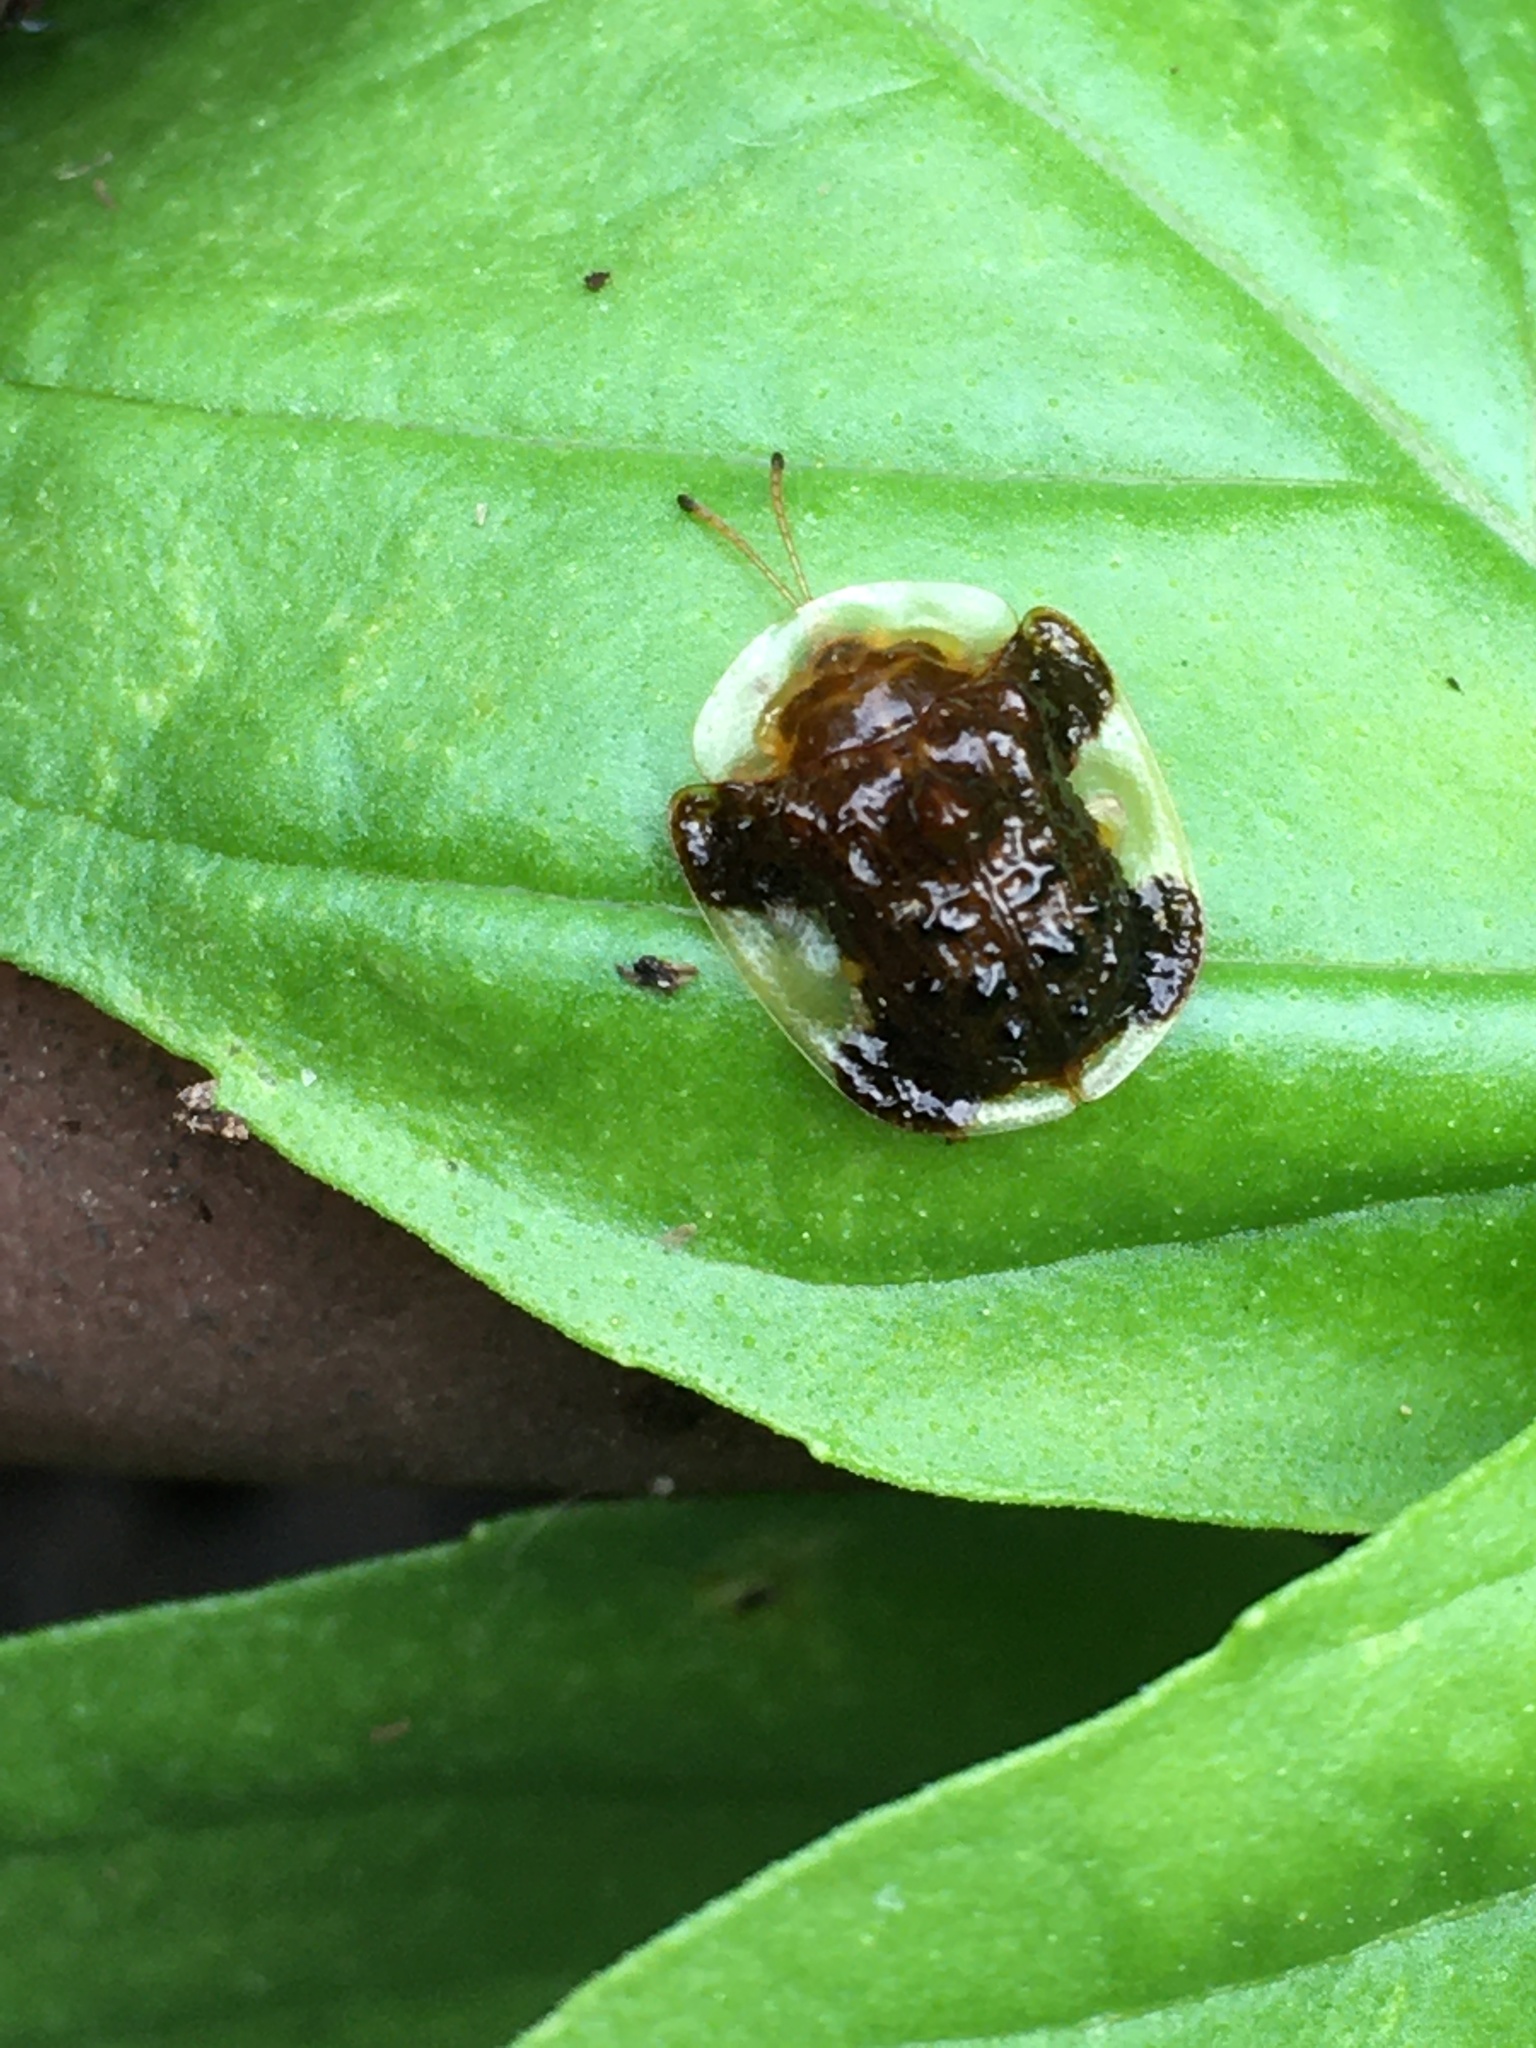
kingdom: Animalia
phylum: Arthropoda
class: Insecta
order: Coleoptera
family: Chrysomelidae
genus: Helocassis
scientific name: Helocassis clavata
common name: Clavate tortoise beetle
